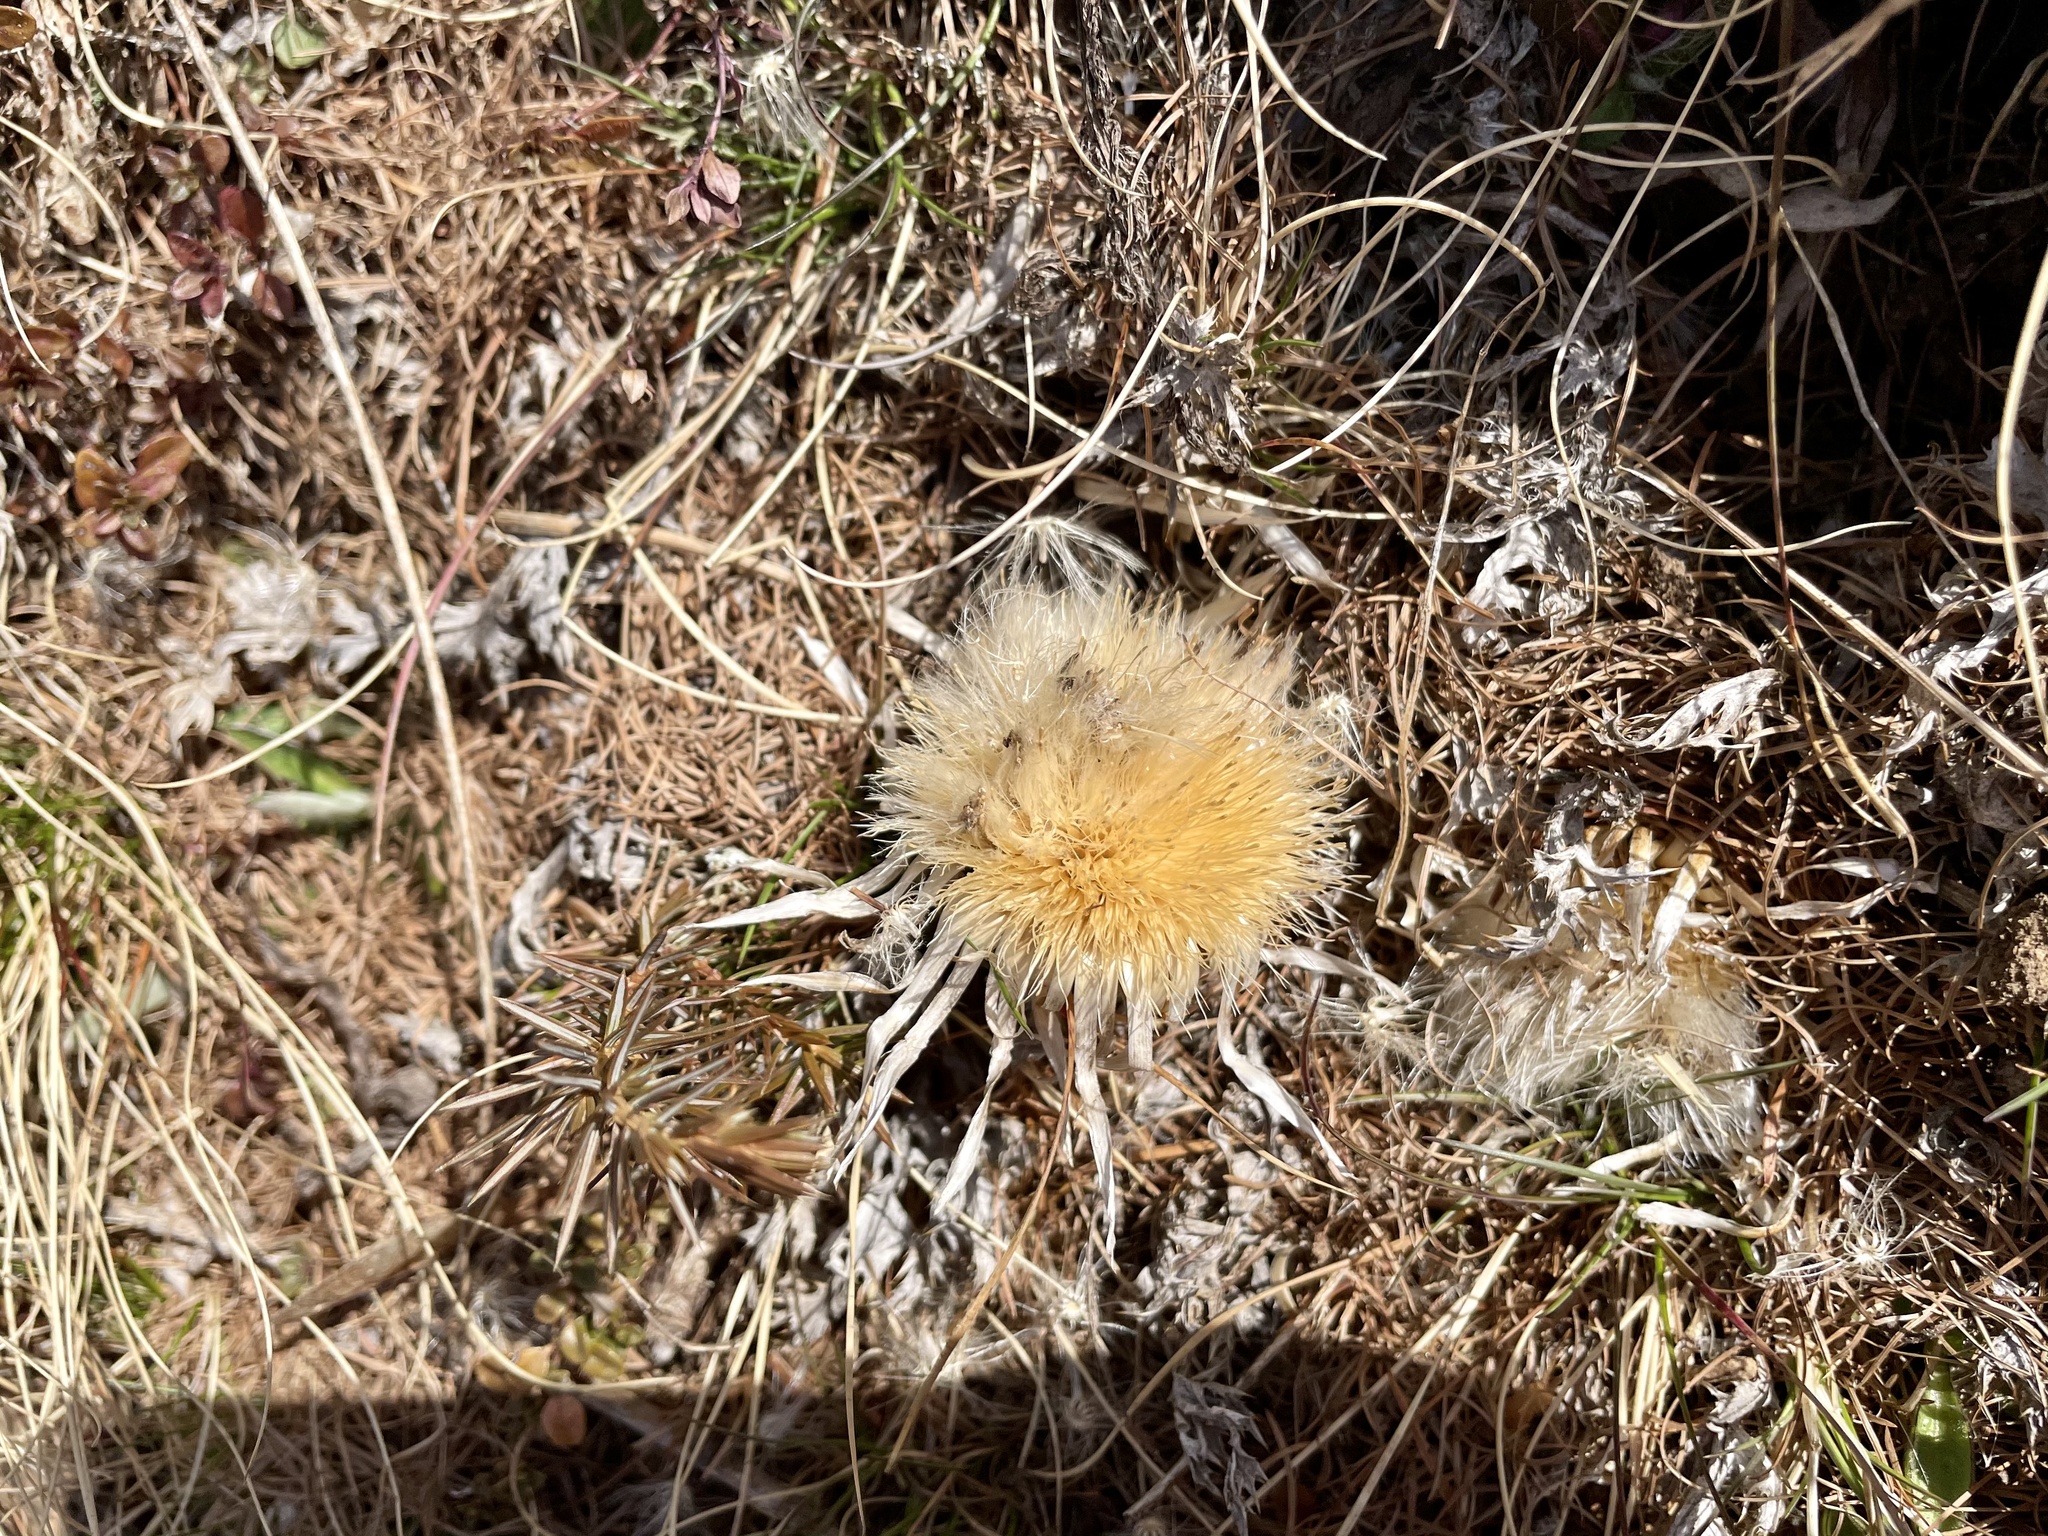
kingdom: Plantae
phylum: Tracheophyta
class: Magnoliopsida
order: Asterales
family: Asteraceae
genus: Carlina
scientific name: Carlina acaulis
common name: Stemless carline thistle
